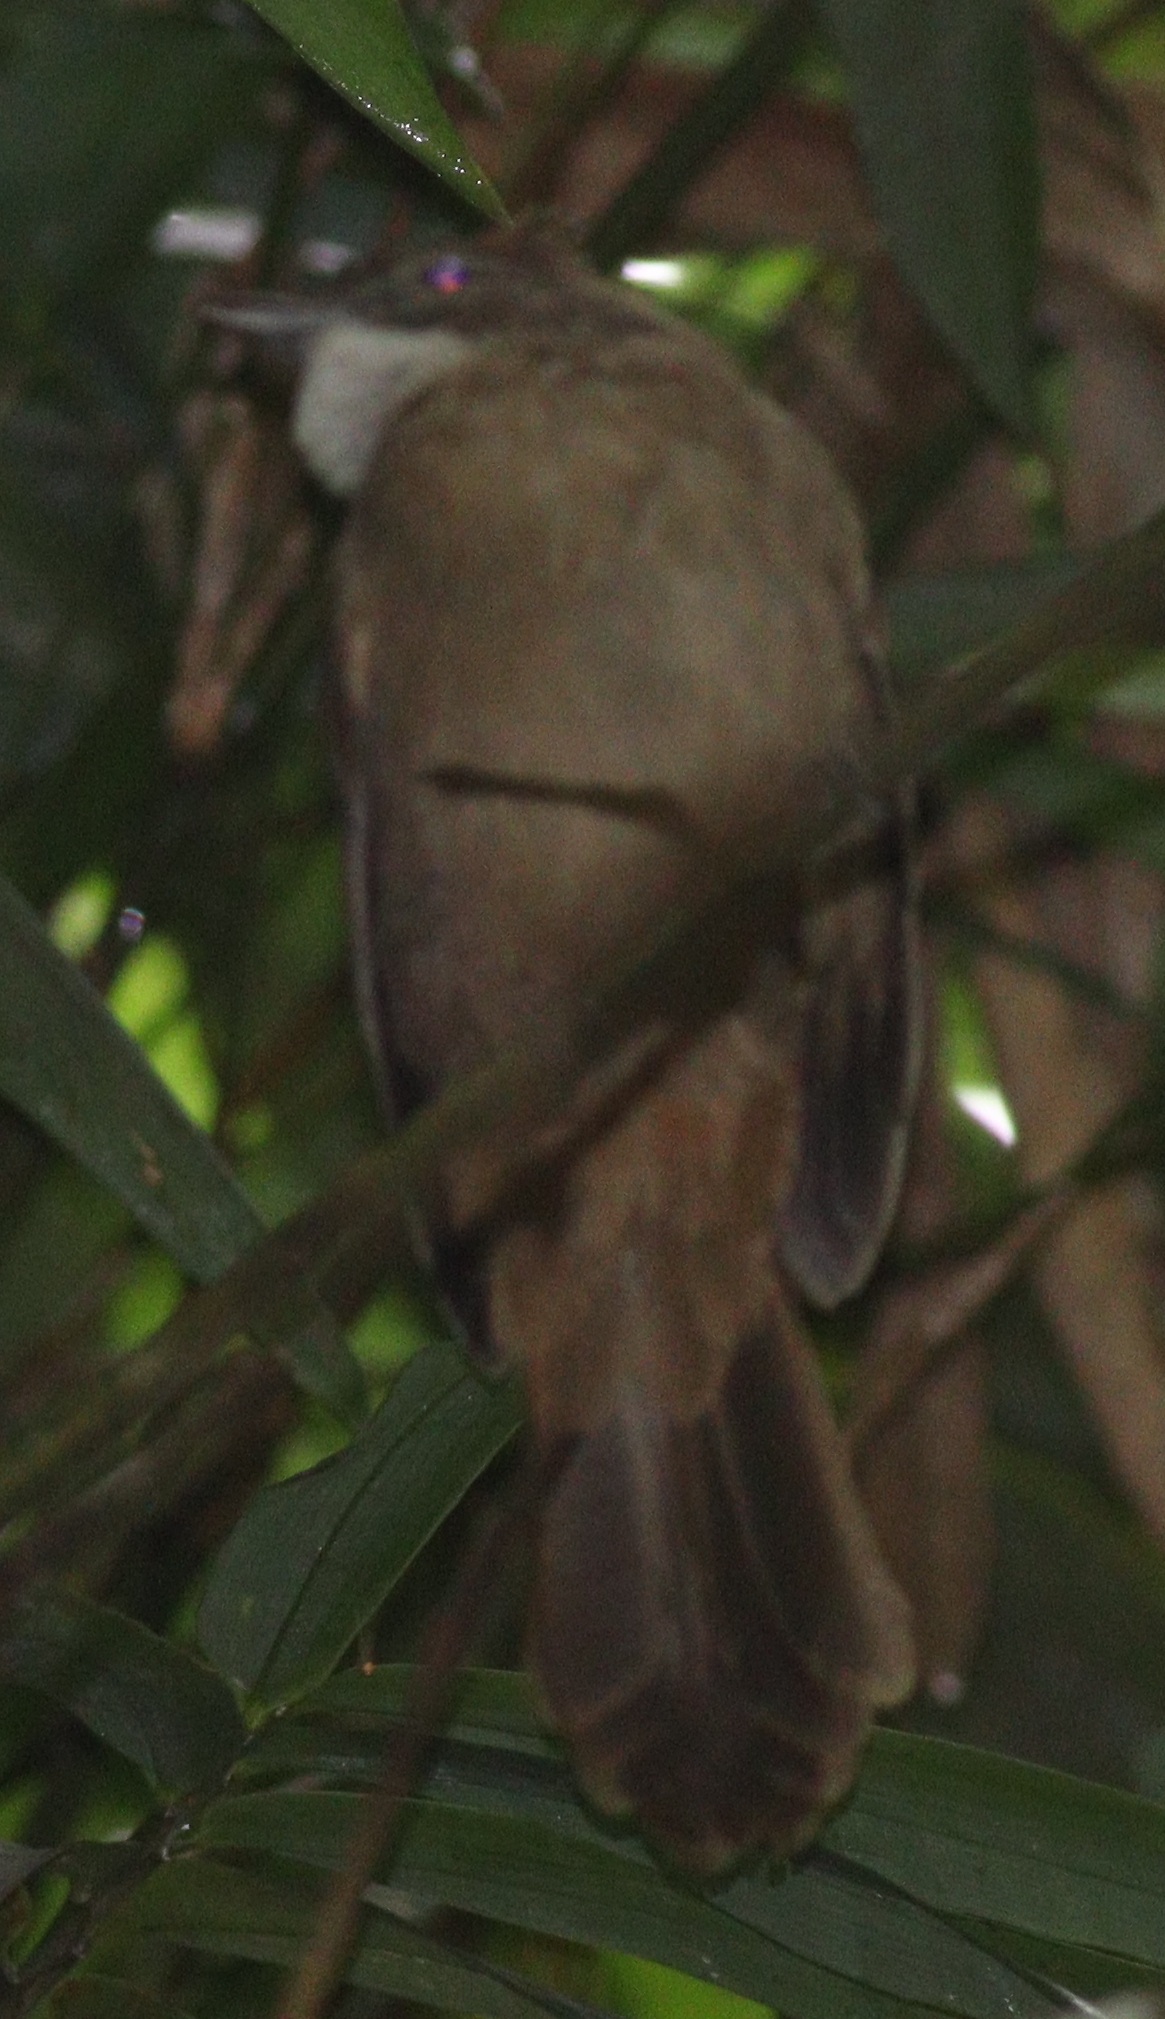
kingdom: Animalia
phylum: Chordata
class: Aves
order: Passeriformes
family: Pycnonotidae
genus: Alophoixus
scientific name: Alophoixus ochraceus
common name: Ochraceous bulbul
